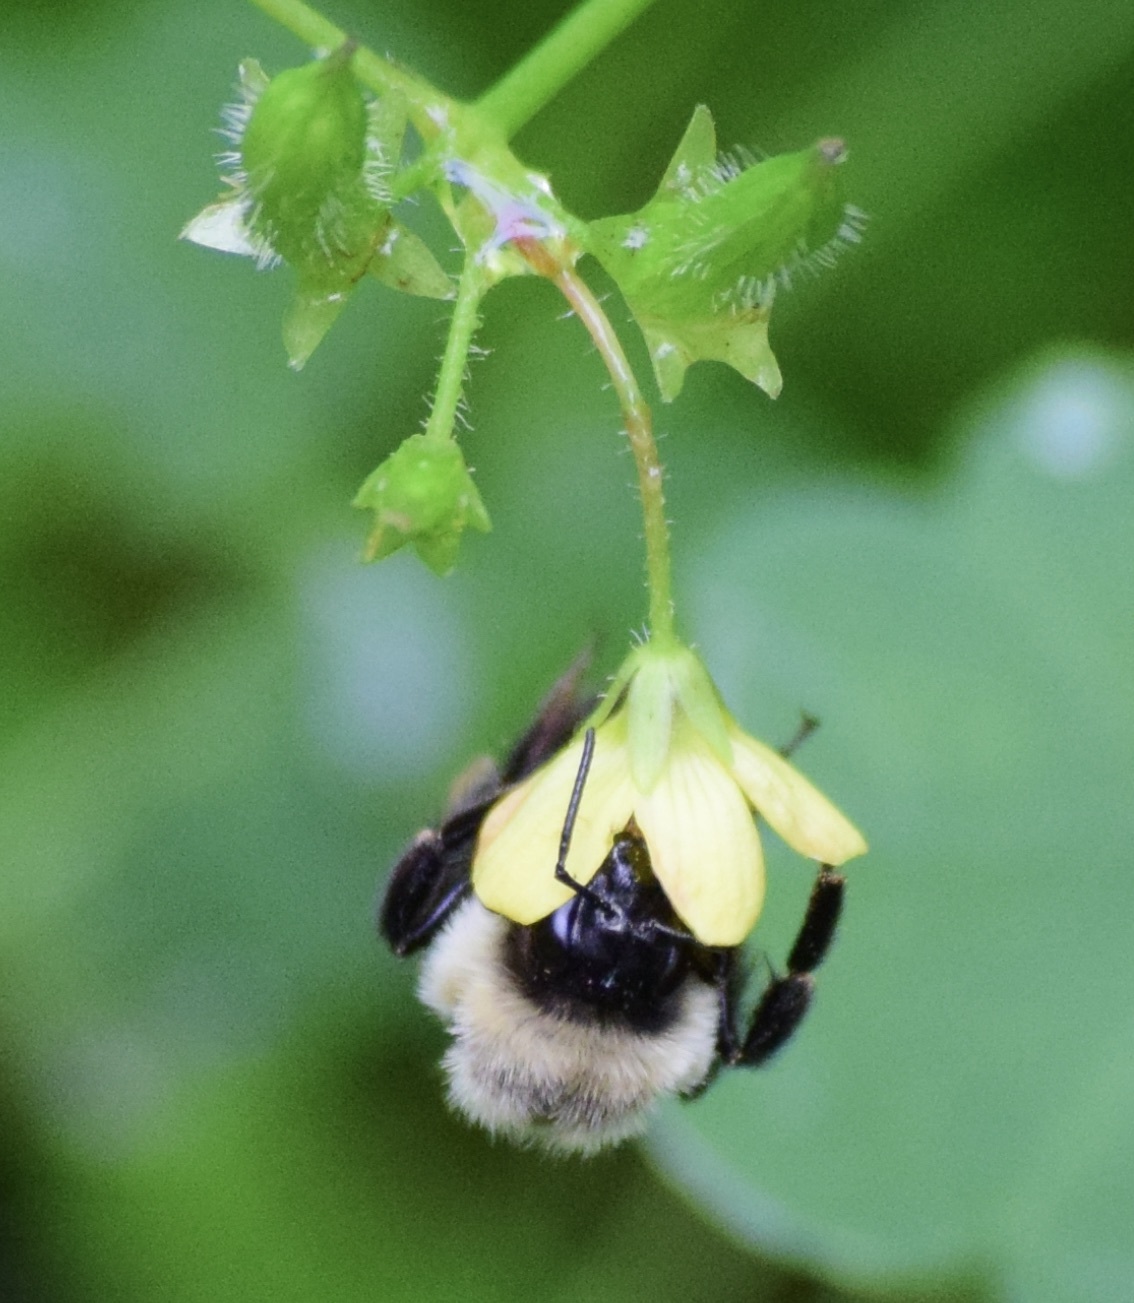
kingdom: Animalia
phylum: Arthropoda
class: Insecta
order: Hymenoptera
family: Apidae
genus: Bombus
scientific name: Bombus impatiens
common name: Common eastern bumble bee
